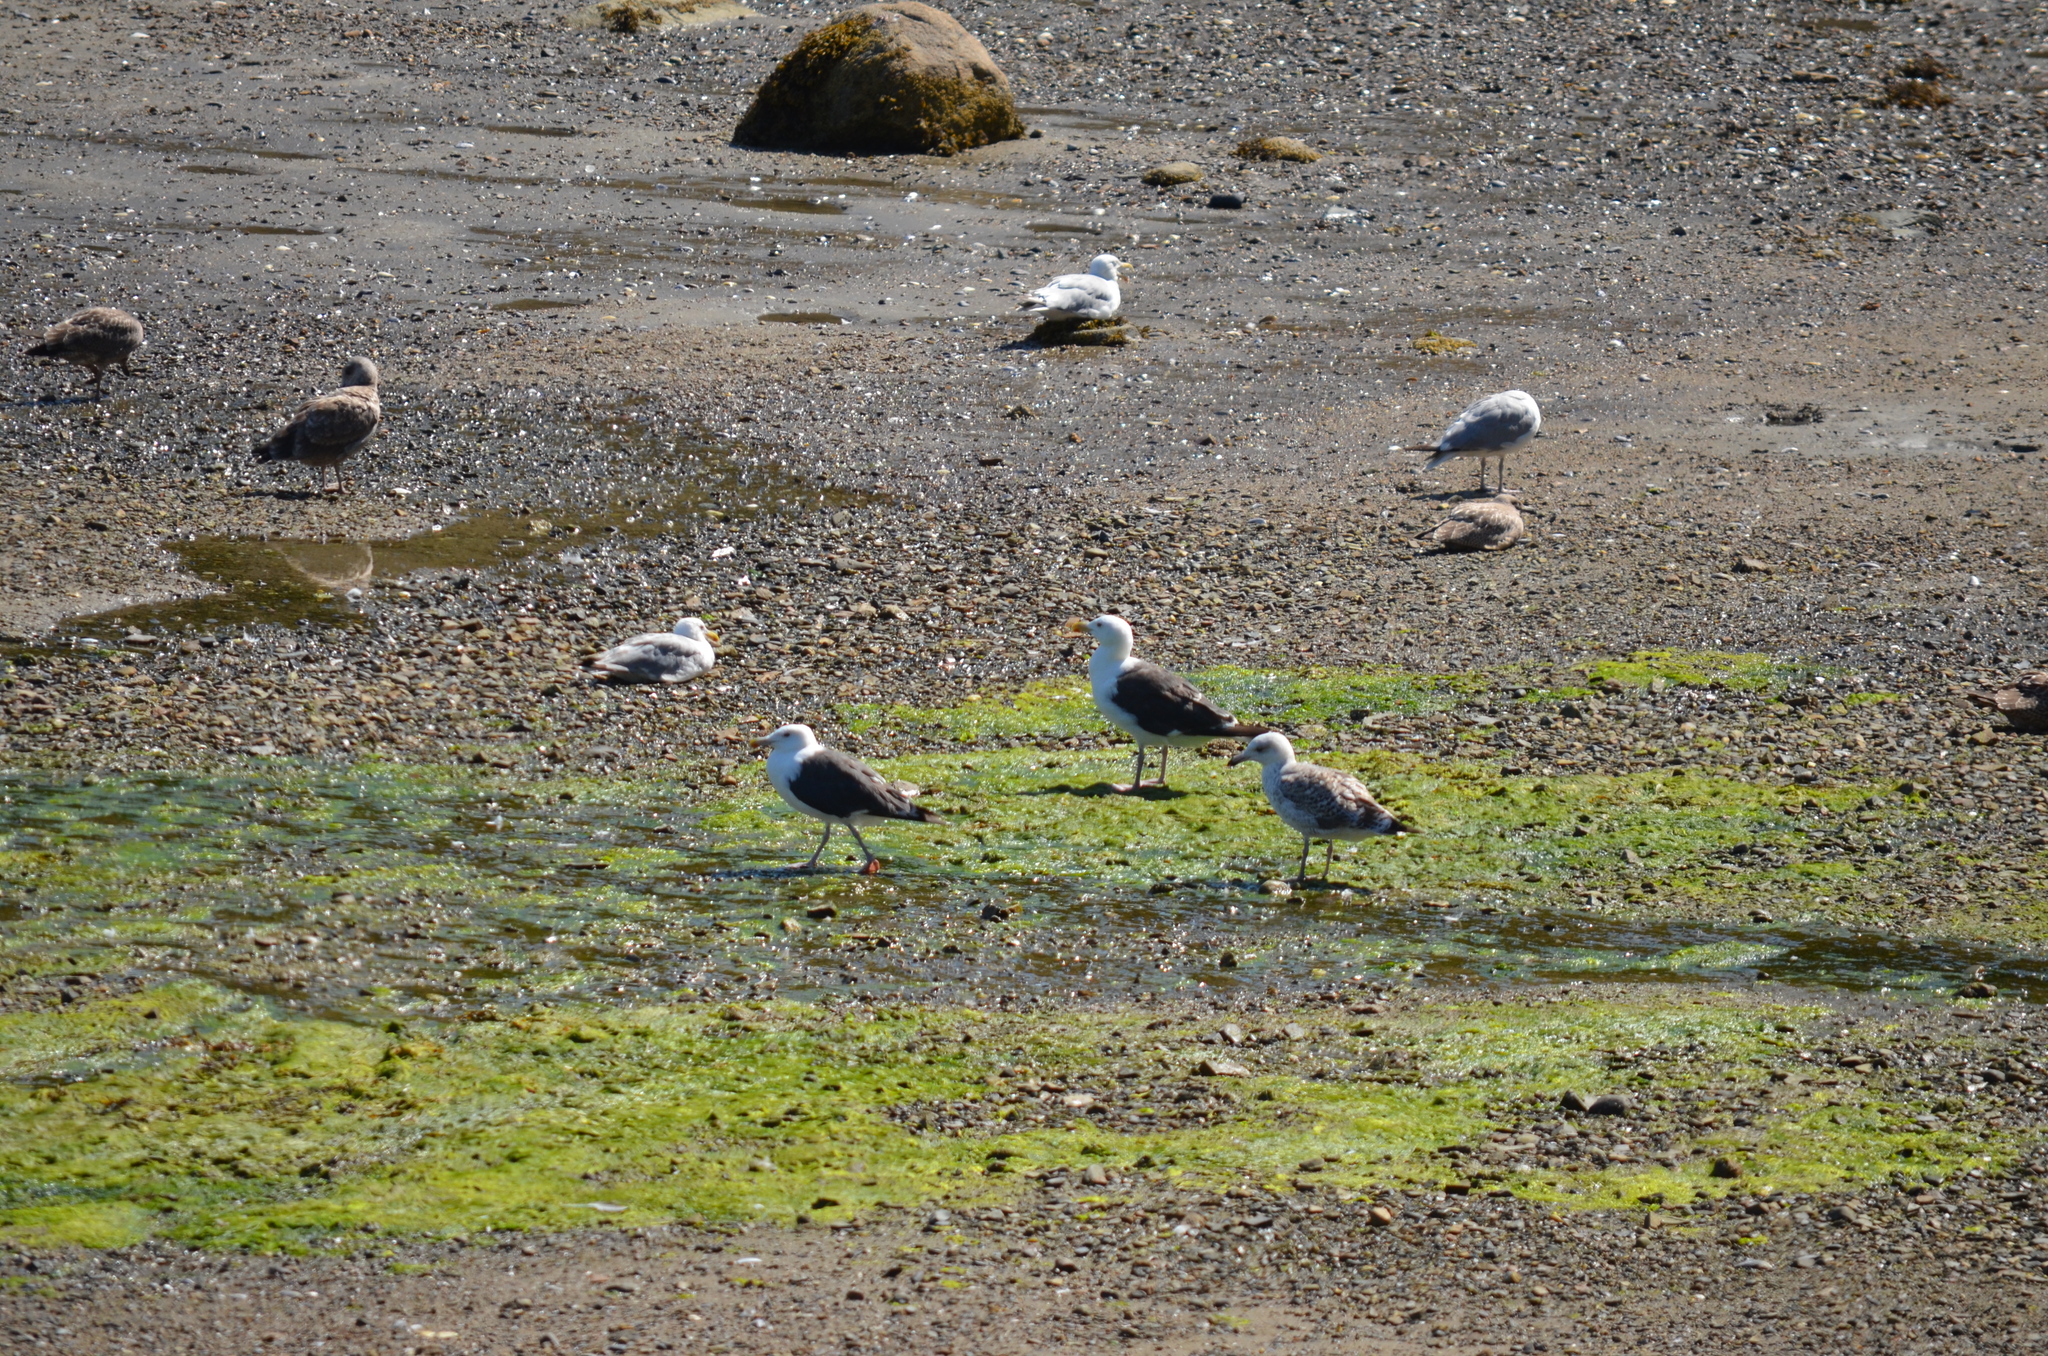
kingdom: Animalia
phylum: Chordata
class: Aves
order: Charadriiformes
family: Laridae
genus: Larus
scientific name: Larus marinus
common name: Great black-backed gull
